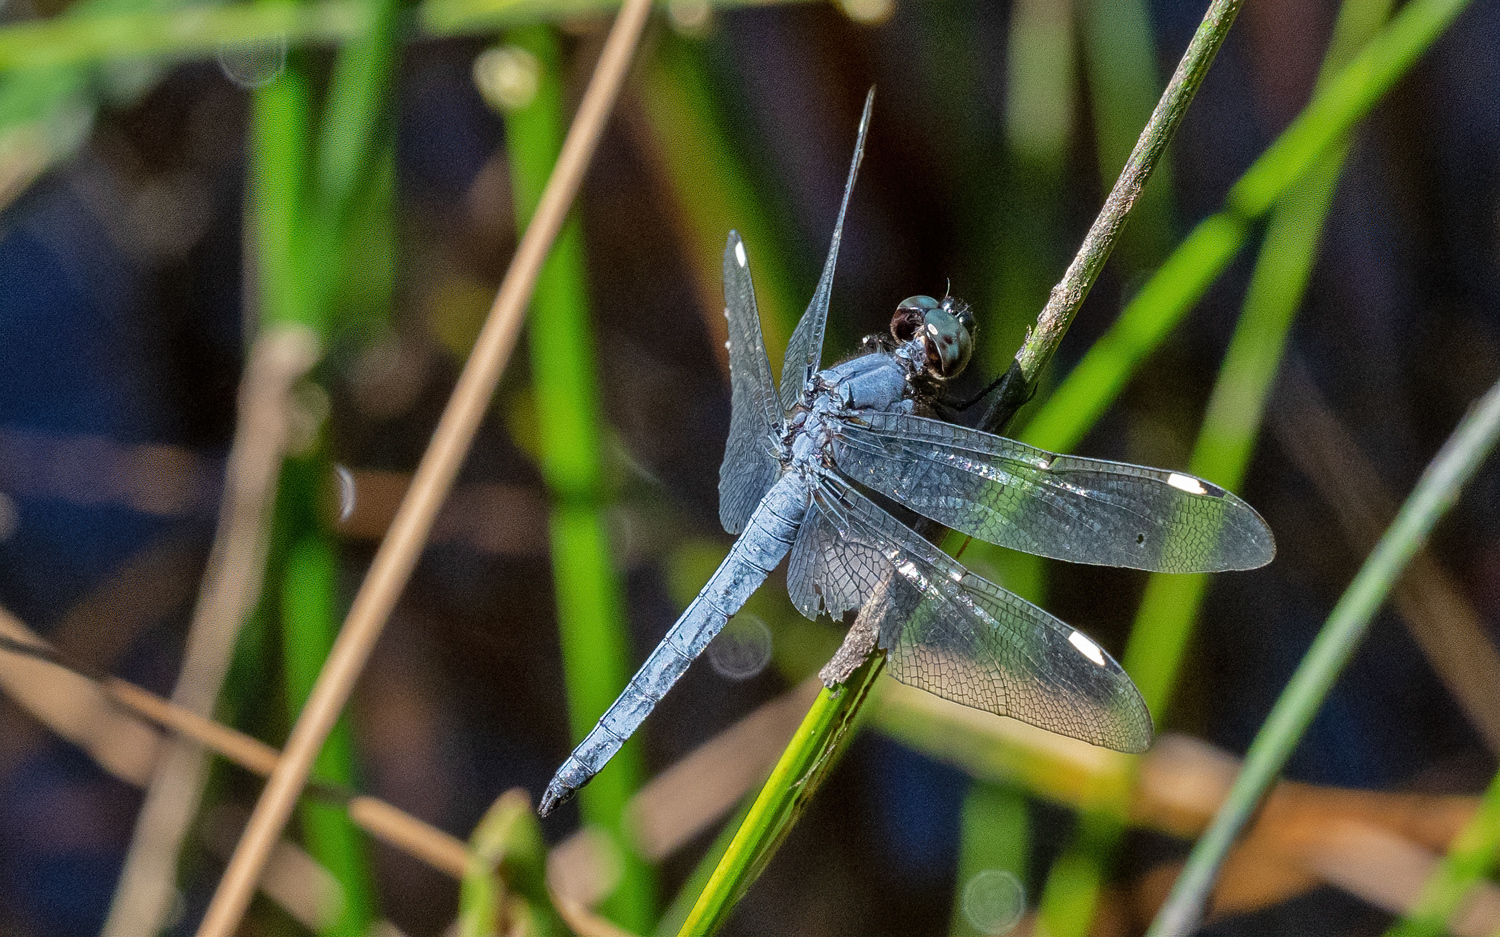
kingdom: Animalia
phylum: Arthropoda
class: Insecta
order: Odonata
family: Libellulidae
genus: Libellula
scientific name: Libellula cyanea
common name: Spangled skimmer
